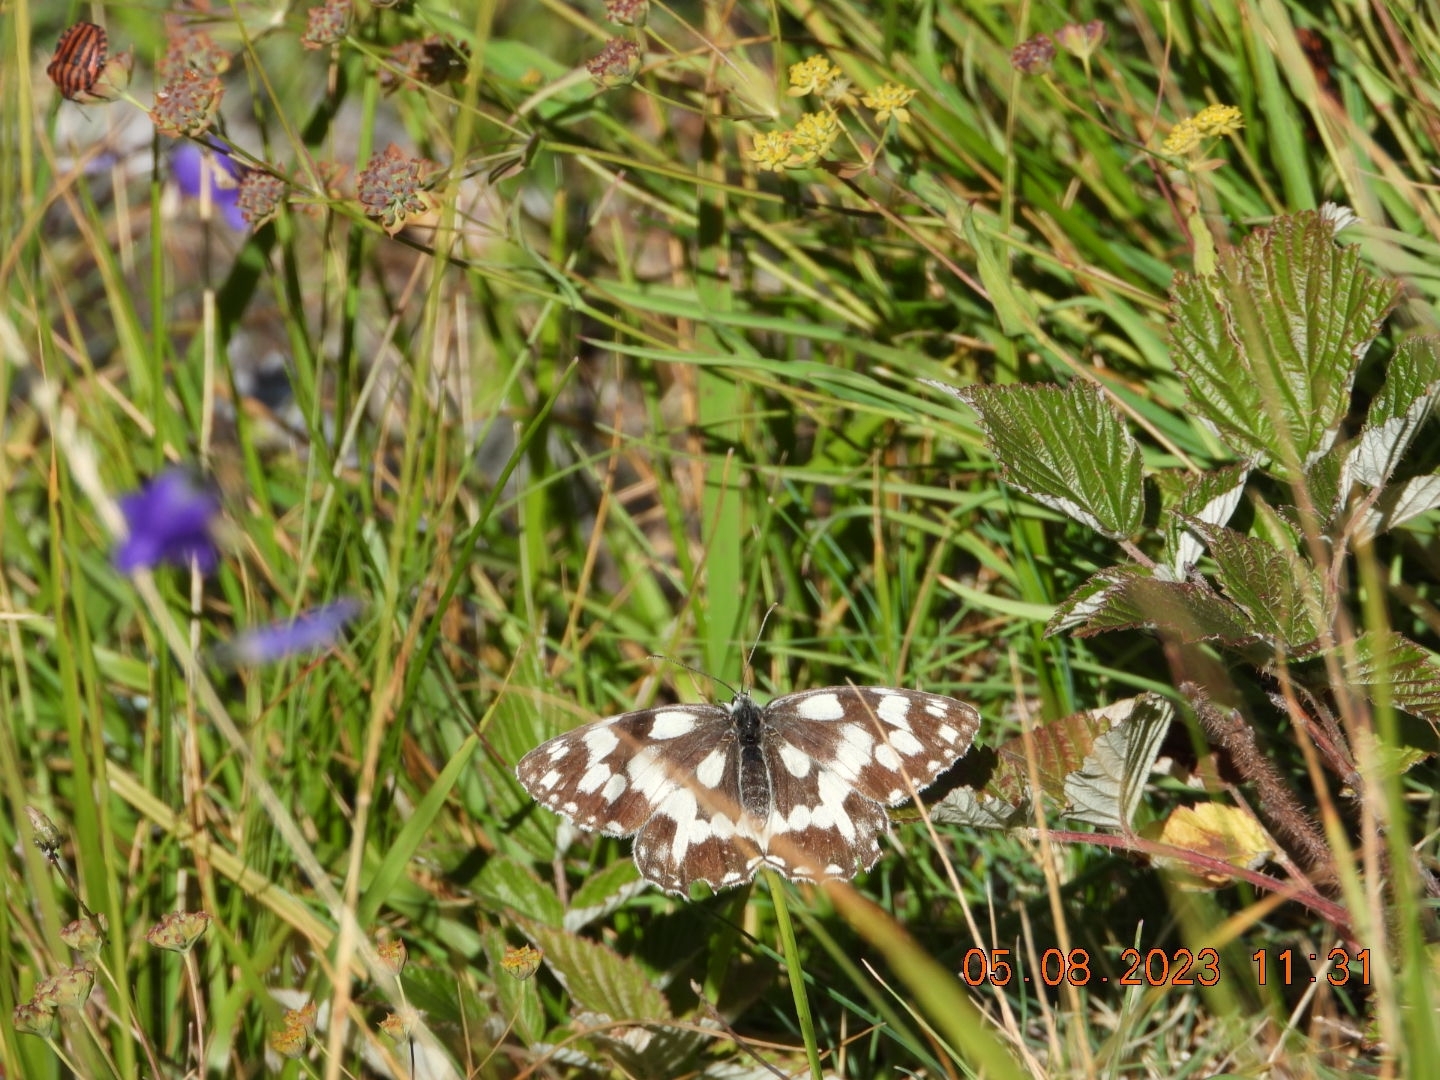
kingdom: Animalia
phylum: Arthropoda
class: Insecta
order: Lepidoptera
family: Nymphalidae
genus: Melanargia
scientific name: Melanargia galathea
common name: Marbled white
